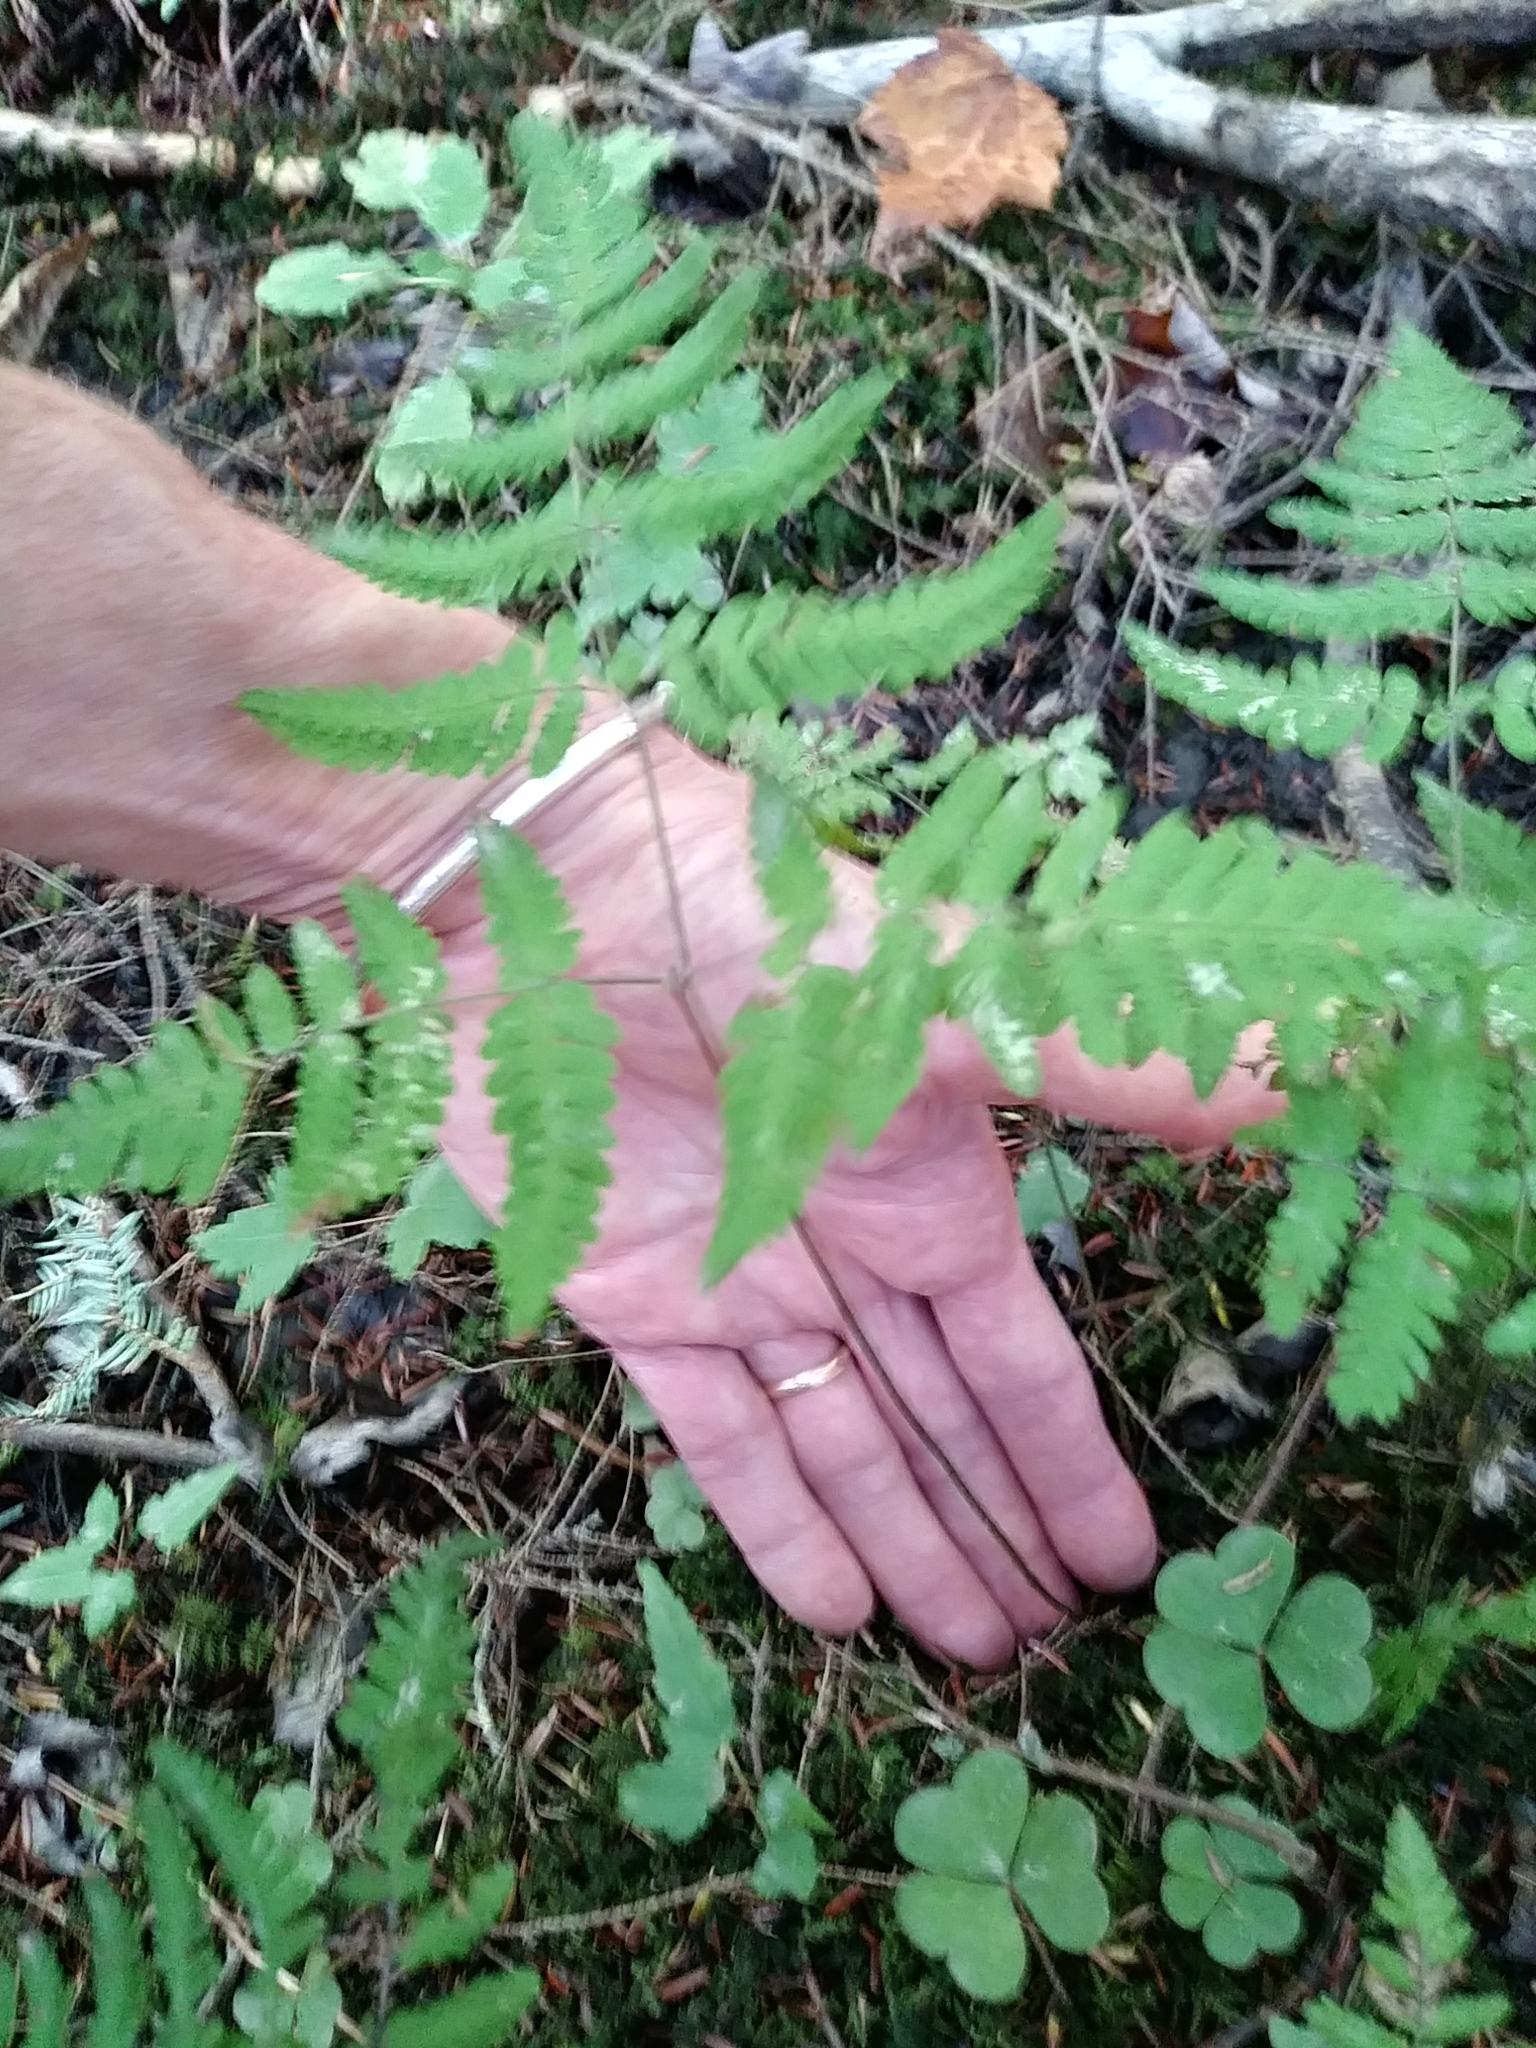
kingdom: Plantae
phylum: Tracheophyta
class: Polypodiopsida
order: Polypodiales
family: Cystopteridaceae
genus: Gymnocarpium
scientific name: Gymnocarpium dryopteris
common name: Oak fern
